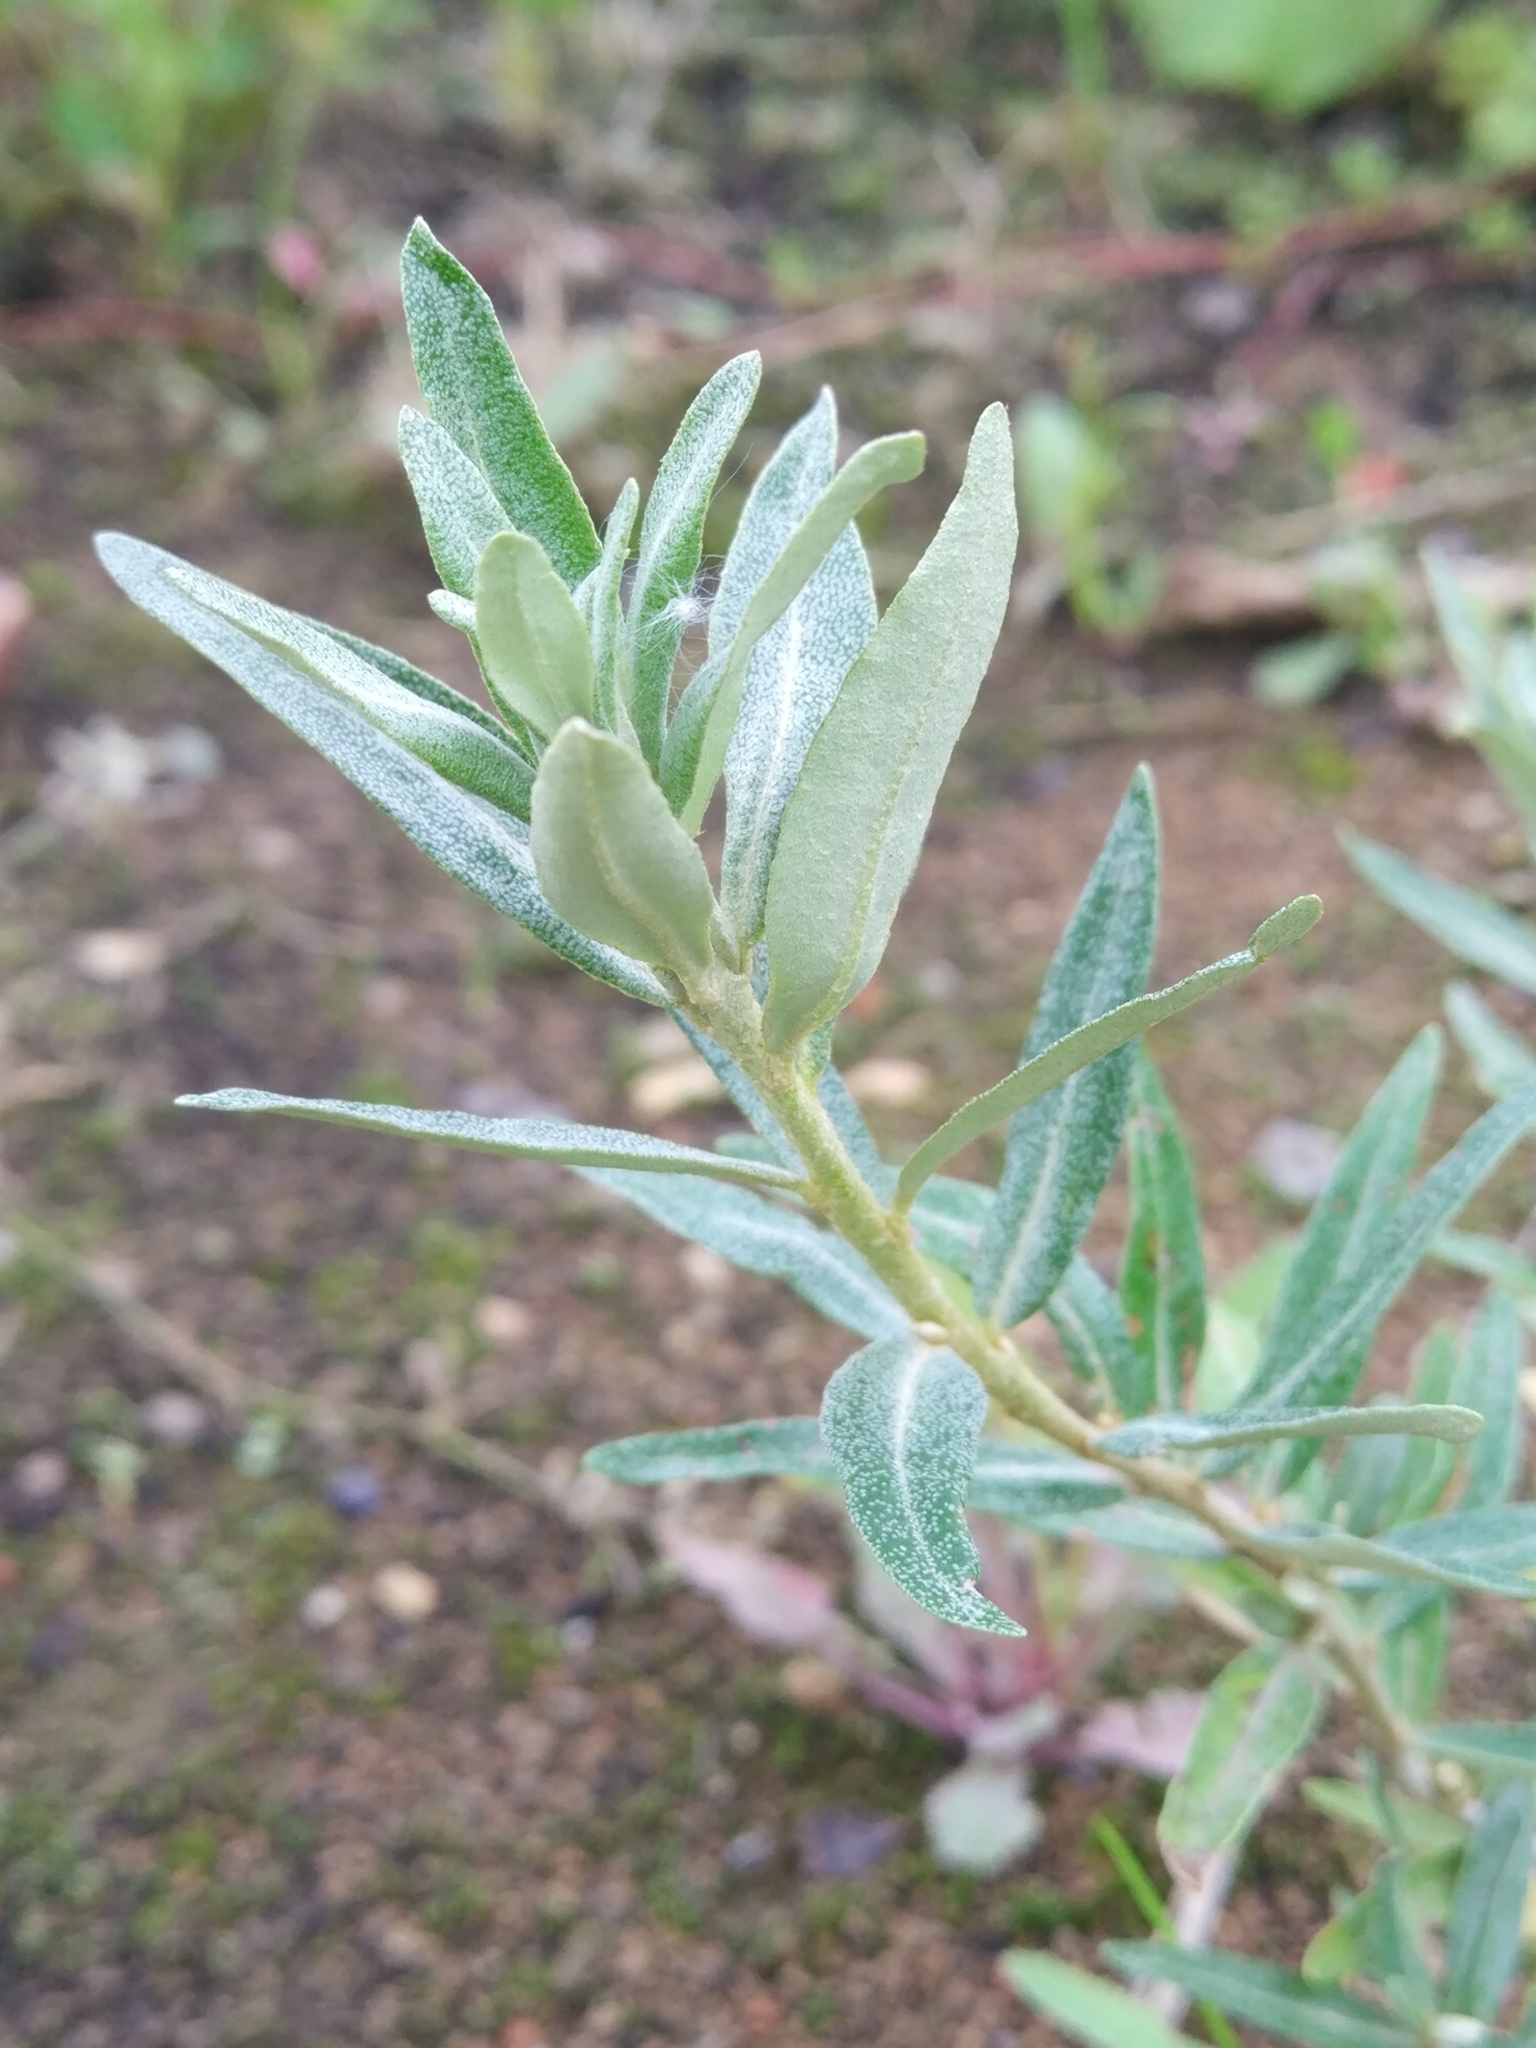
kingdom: Plantae
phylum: Tracheophyta
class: Magnoliopsida
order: Rosales
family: Elaeagnaceae
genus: Hippophae
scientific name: Hippophae rhamnoides
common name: Sea-buckthorn
